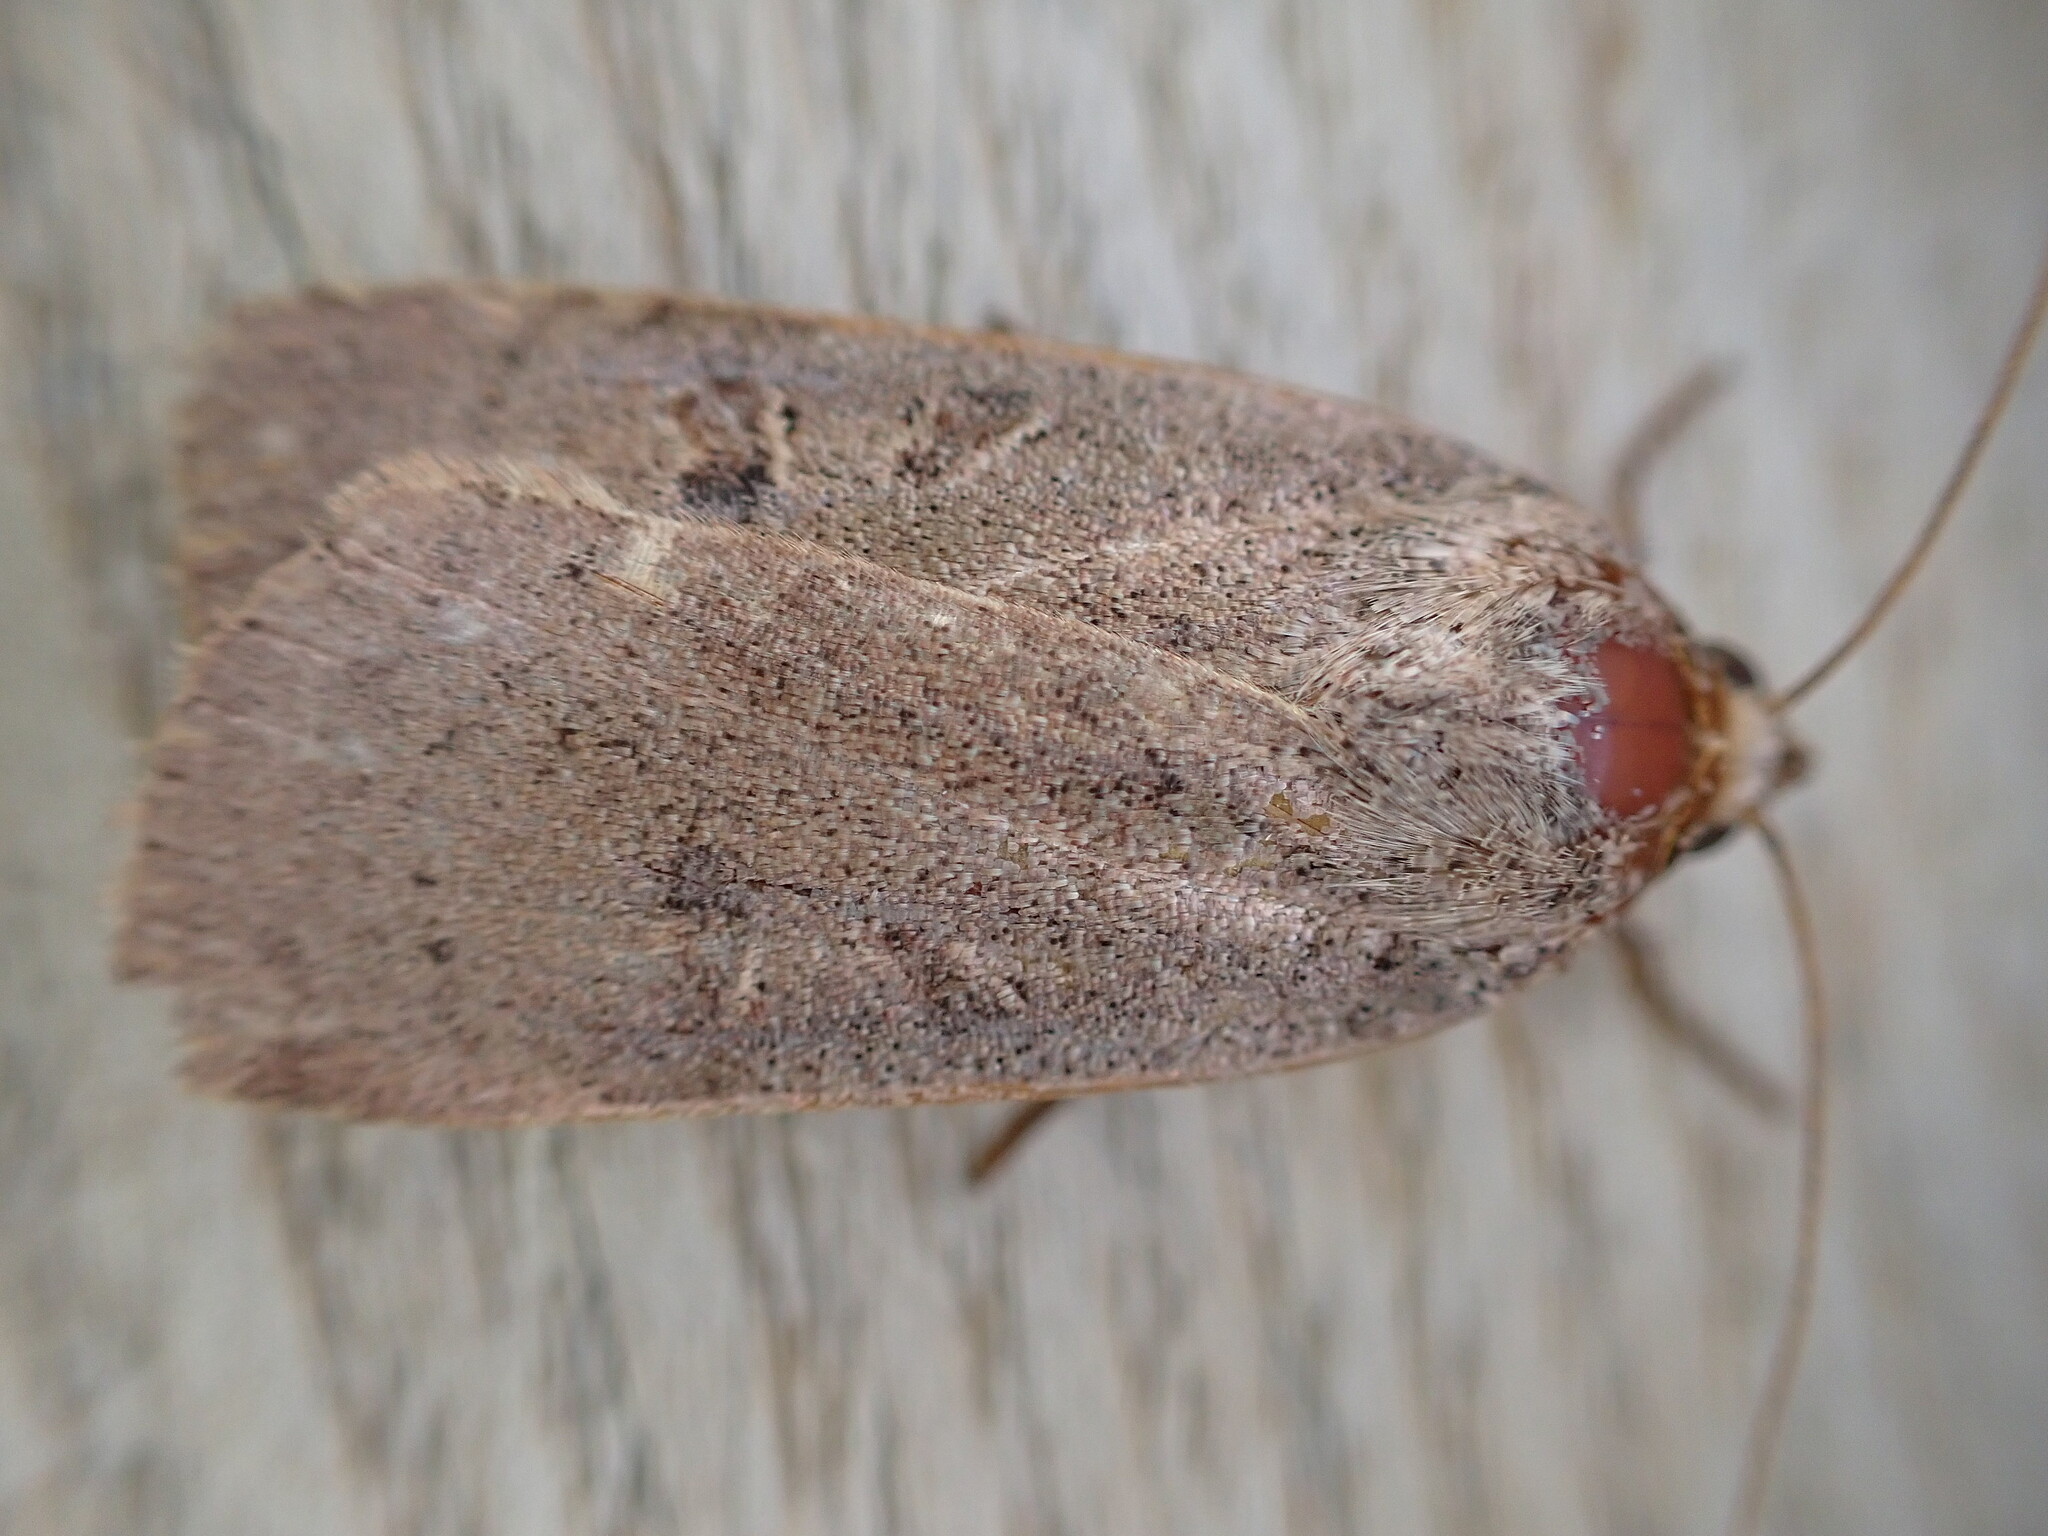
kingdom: Animalia
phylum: Arthropoda
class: Insecta
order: Lepidoptera
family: Noctuidae
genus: Noctua
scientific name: Noctua comes
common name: Lesser yellow underwing
